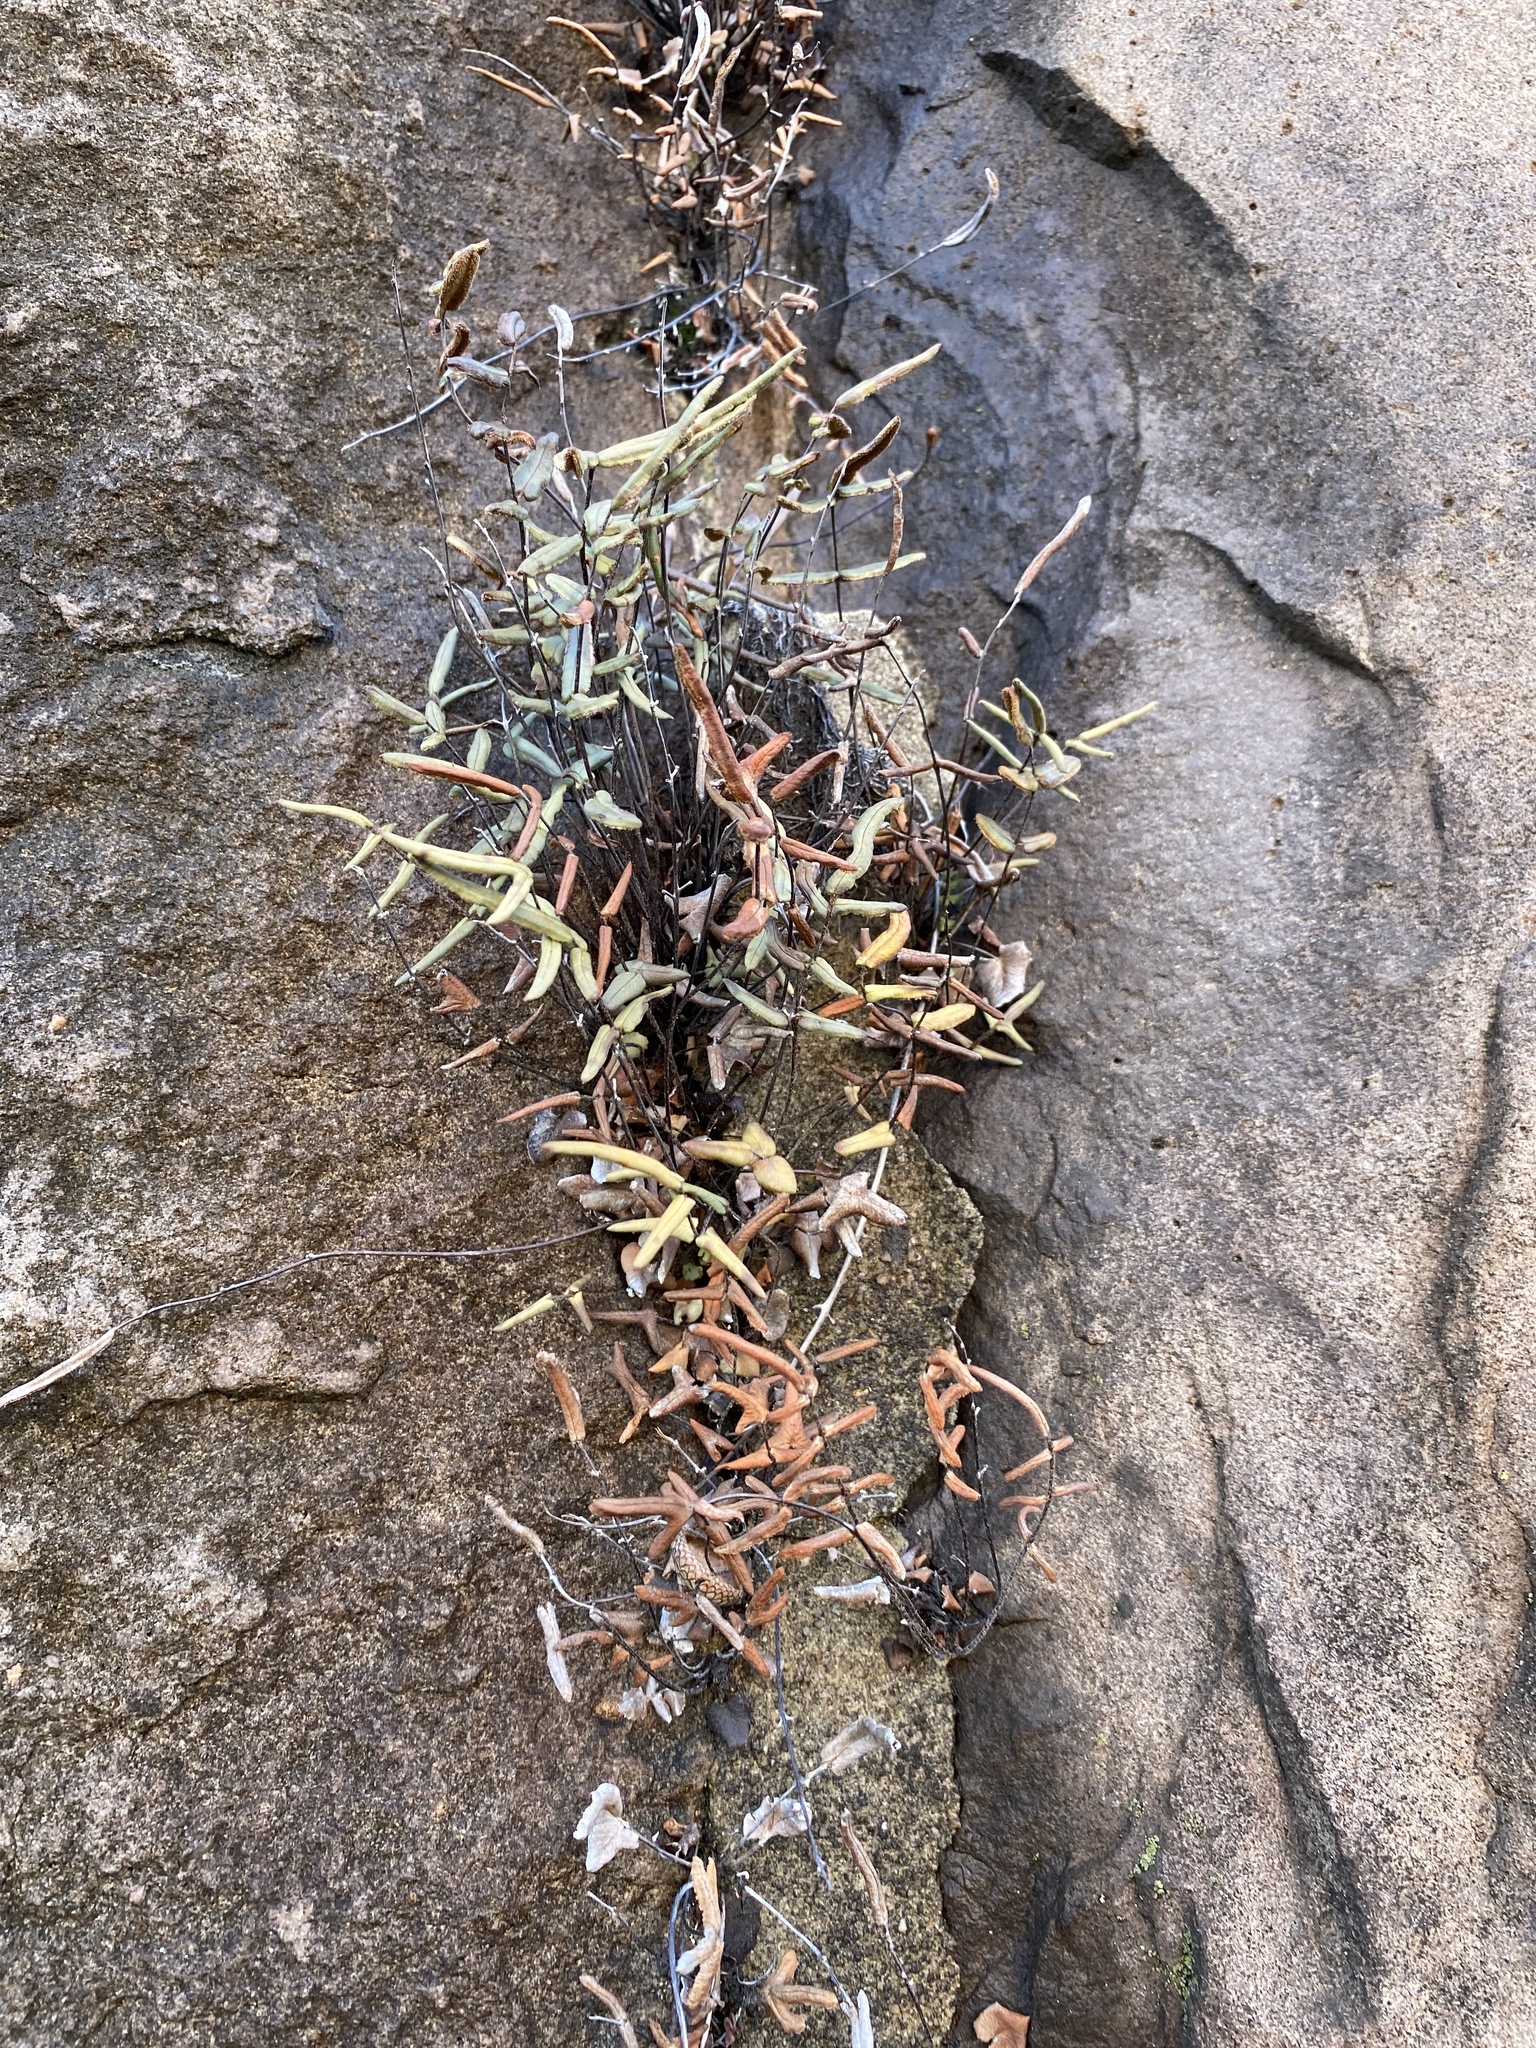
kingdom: Plantae
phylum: Tracheophyta
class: Polypodiopsida
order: Polypodiales
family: Pteridaceae
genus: Pellaea
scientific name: Pellaea atropurpurea
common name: Hairy cliffbrake
